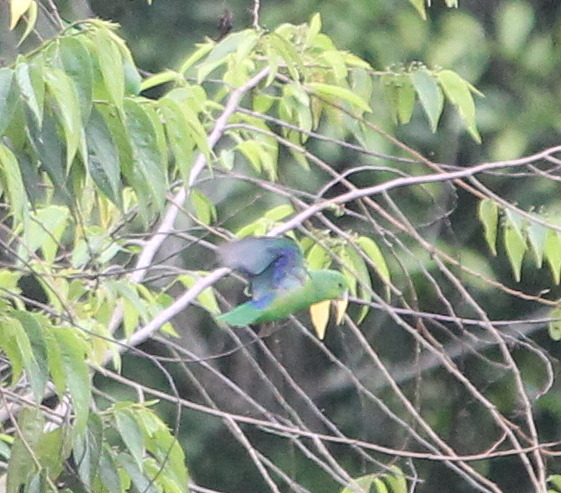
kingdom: Animalia
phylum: Chordata
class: Aves
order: Psittaciformes
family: Psittacidae
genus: Forpus
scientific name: Forpus xanthopterygius
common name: Blue-winged parrotlet
